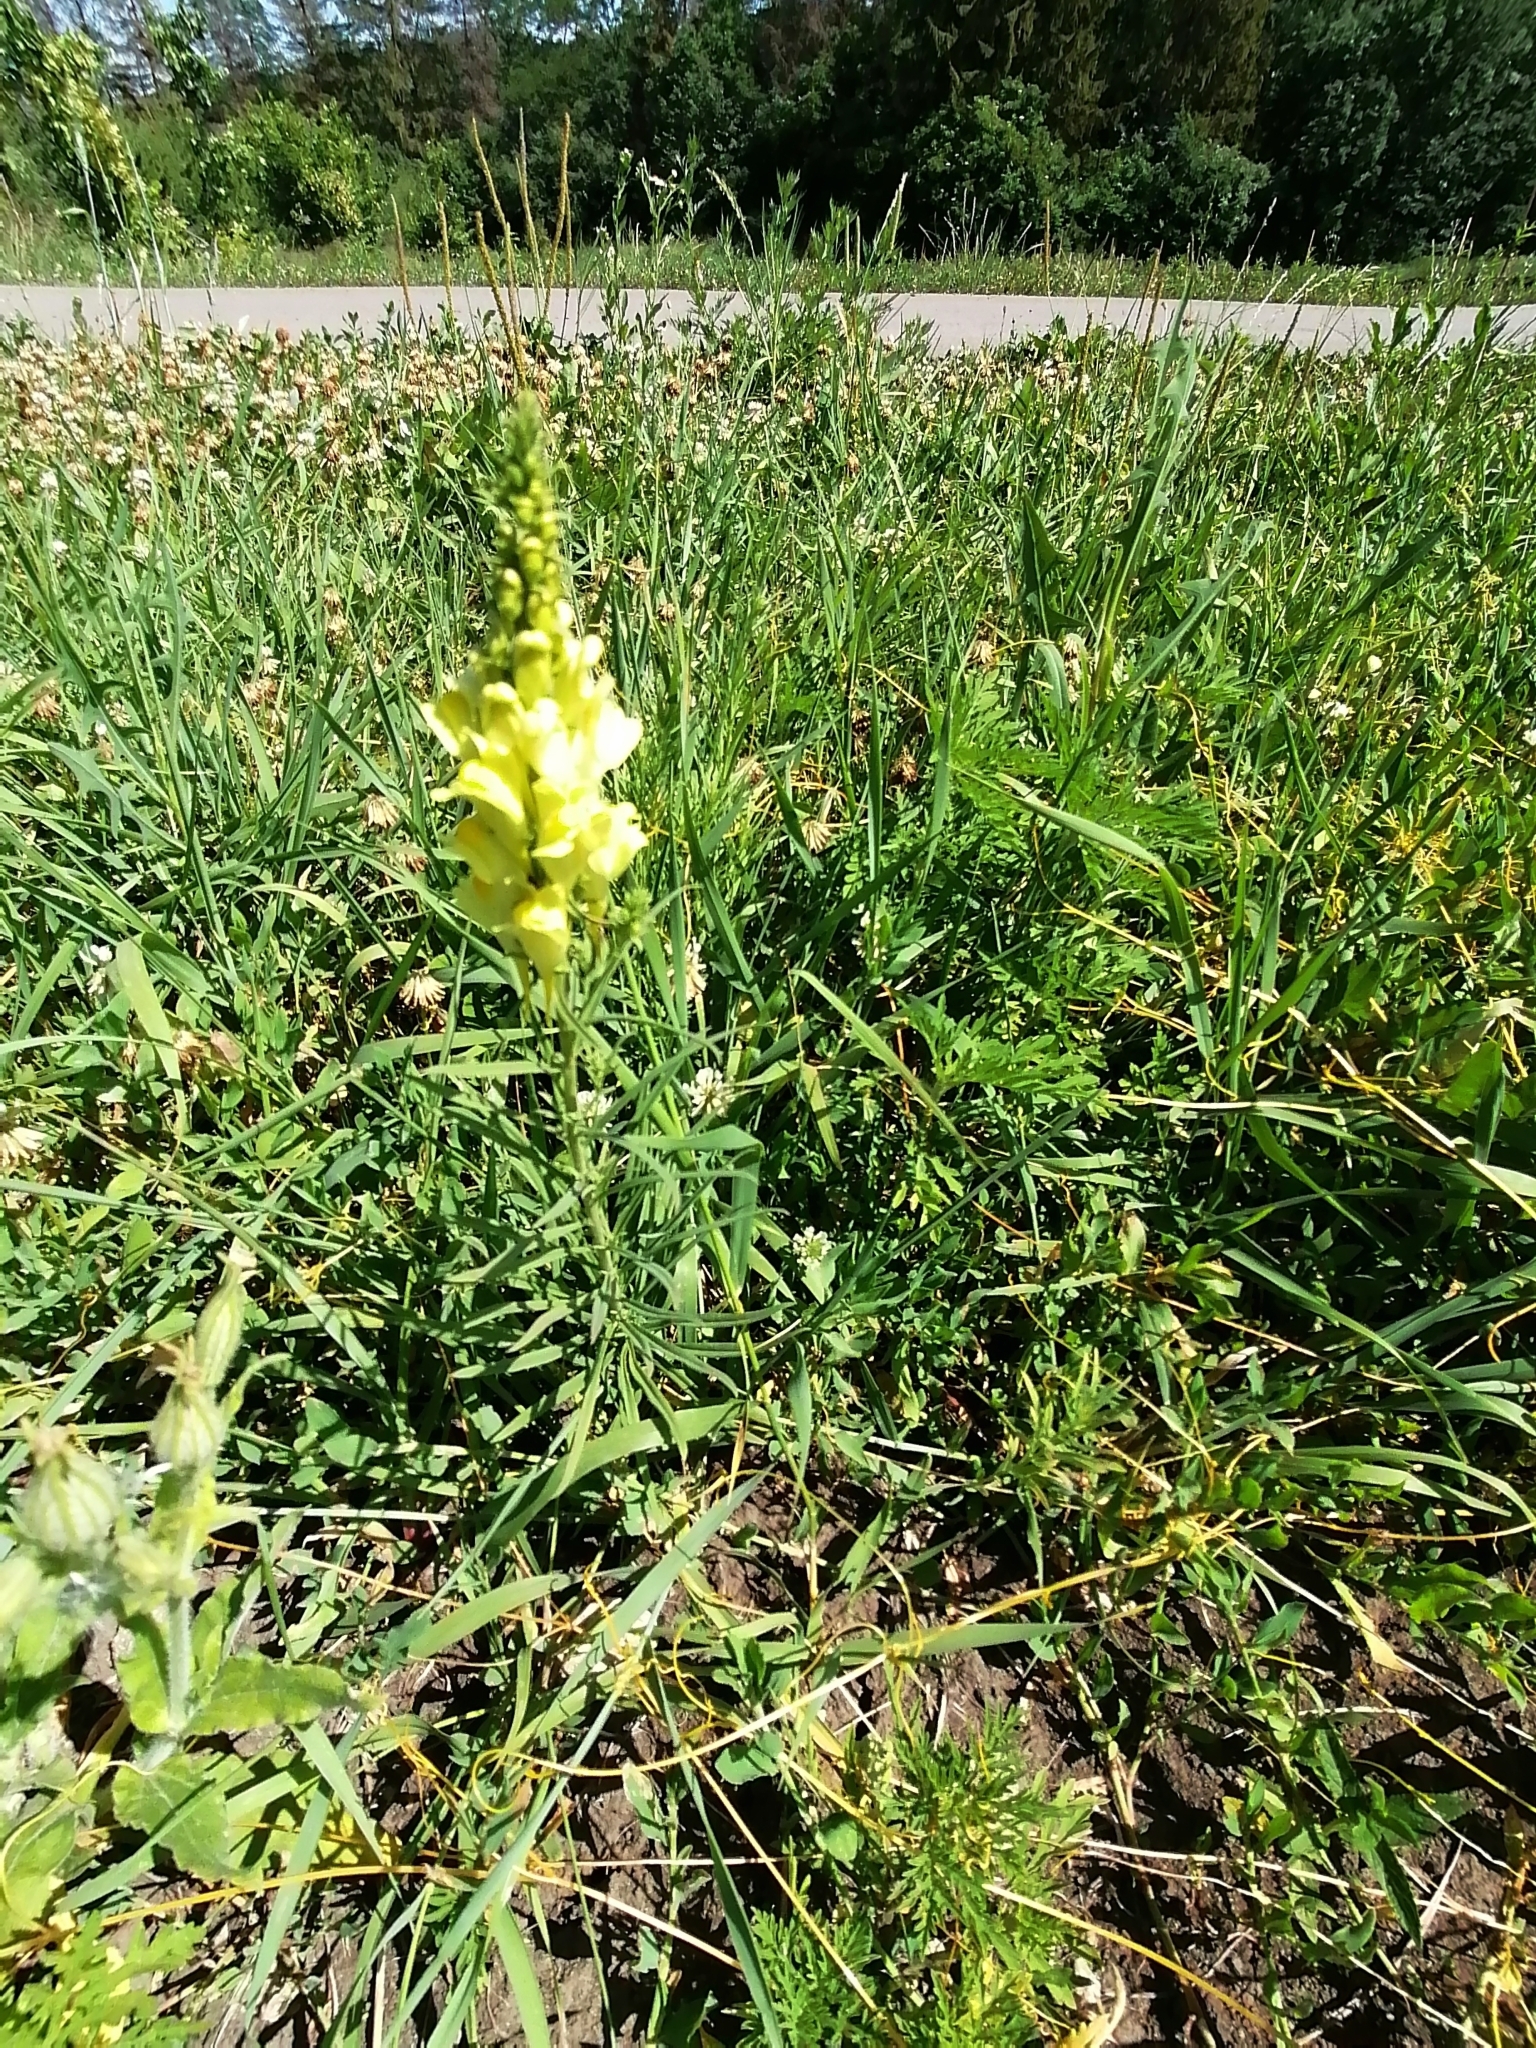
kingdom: Plantae
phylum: Tracheophyta
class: Magnoliopsida
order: Lamiales
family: Plantaginaceae
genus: Linaria
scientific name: Linaria vulgaris
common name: Butter and eggs
